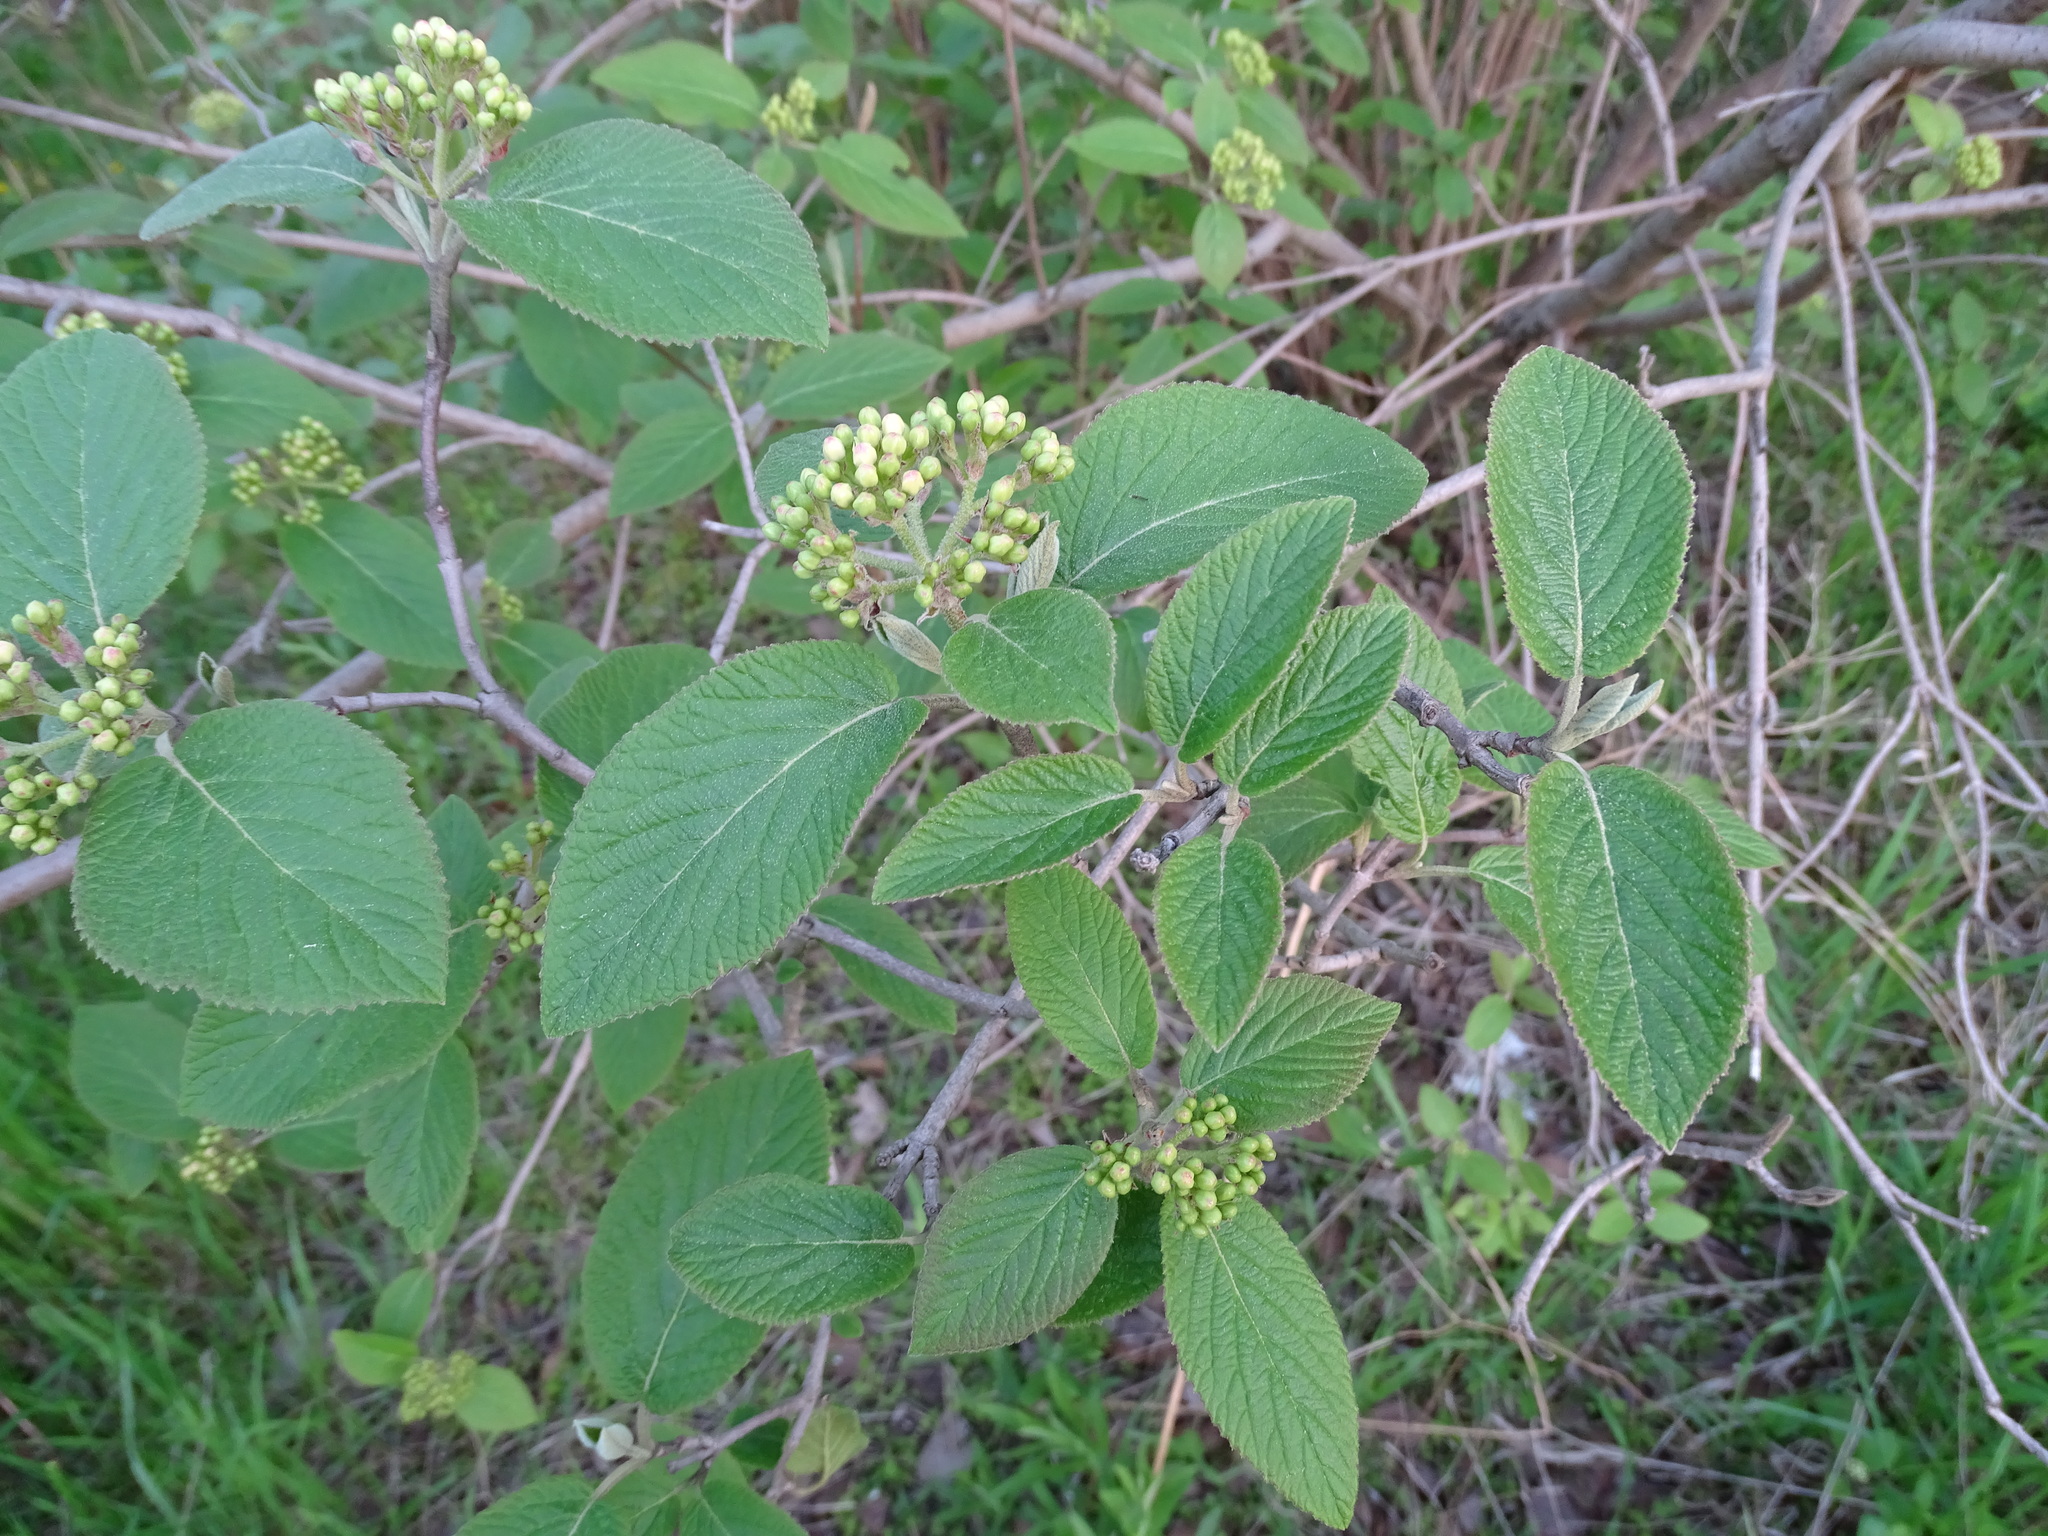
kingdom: Plantae
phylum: Tracheophyta
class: Magnoliopsida
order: Dipsacales
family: Viburnaceae
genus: Viburnum
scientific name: Viburnum lantana
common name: Wayfaring tree
